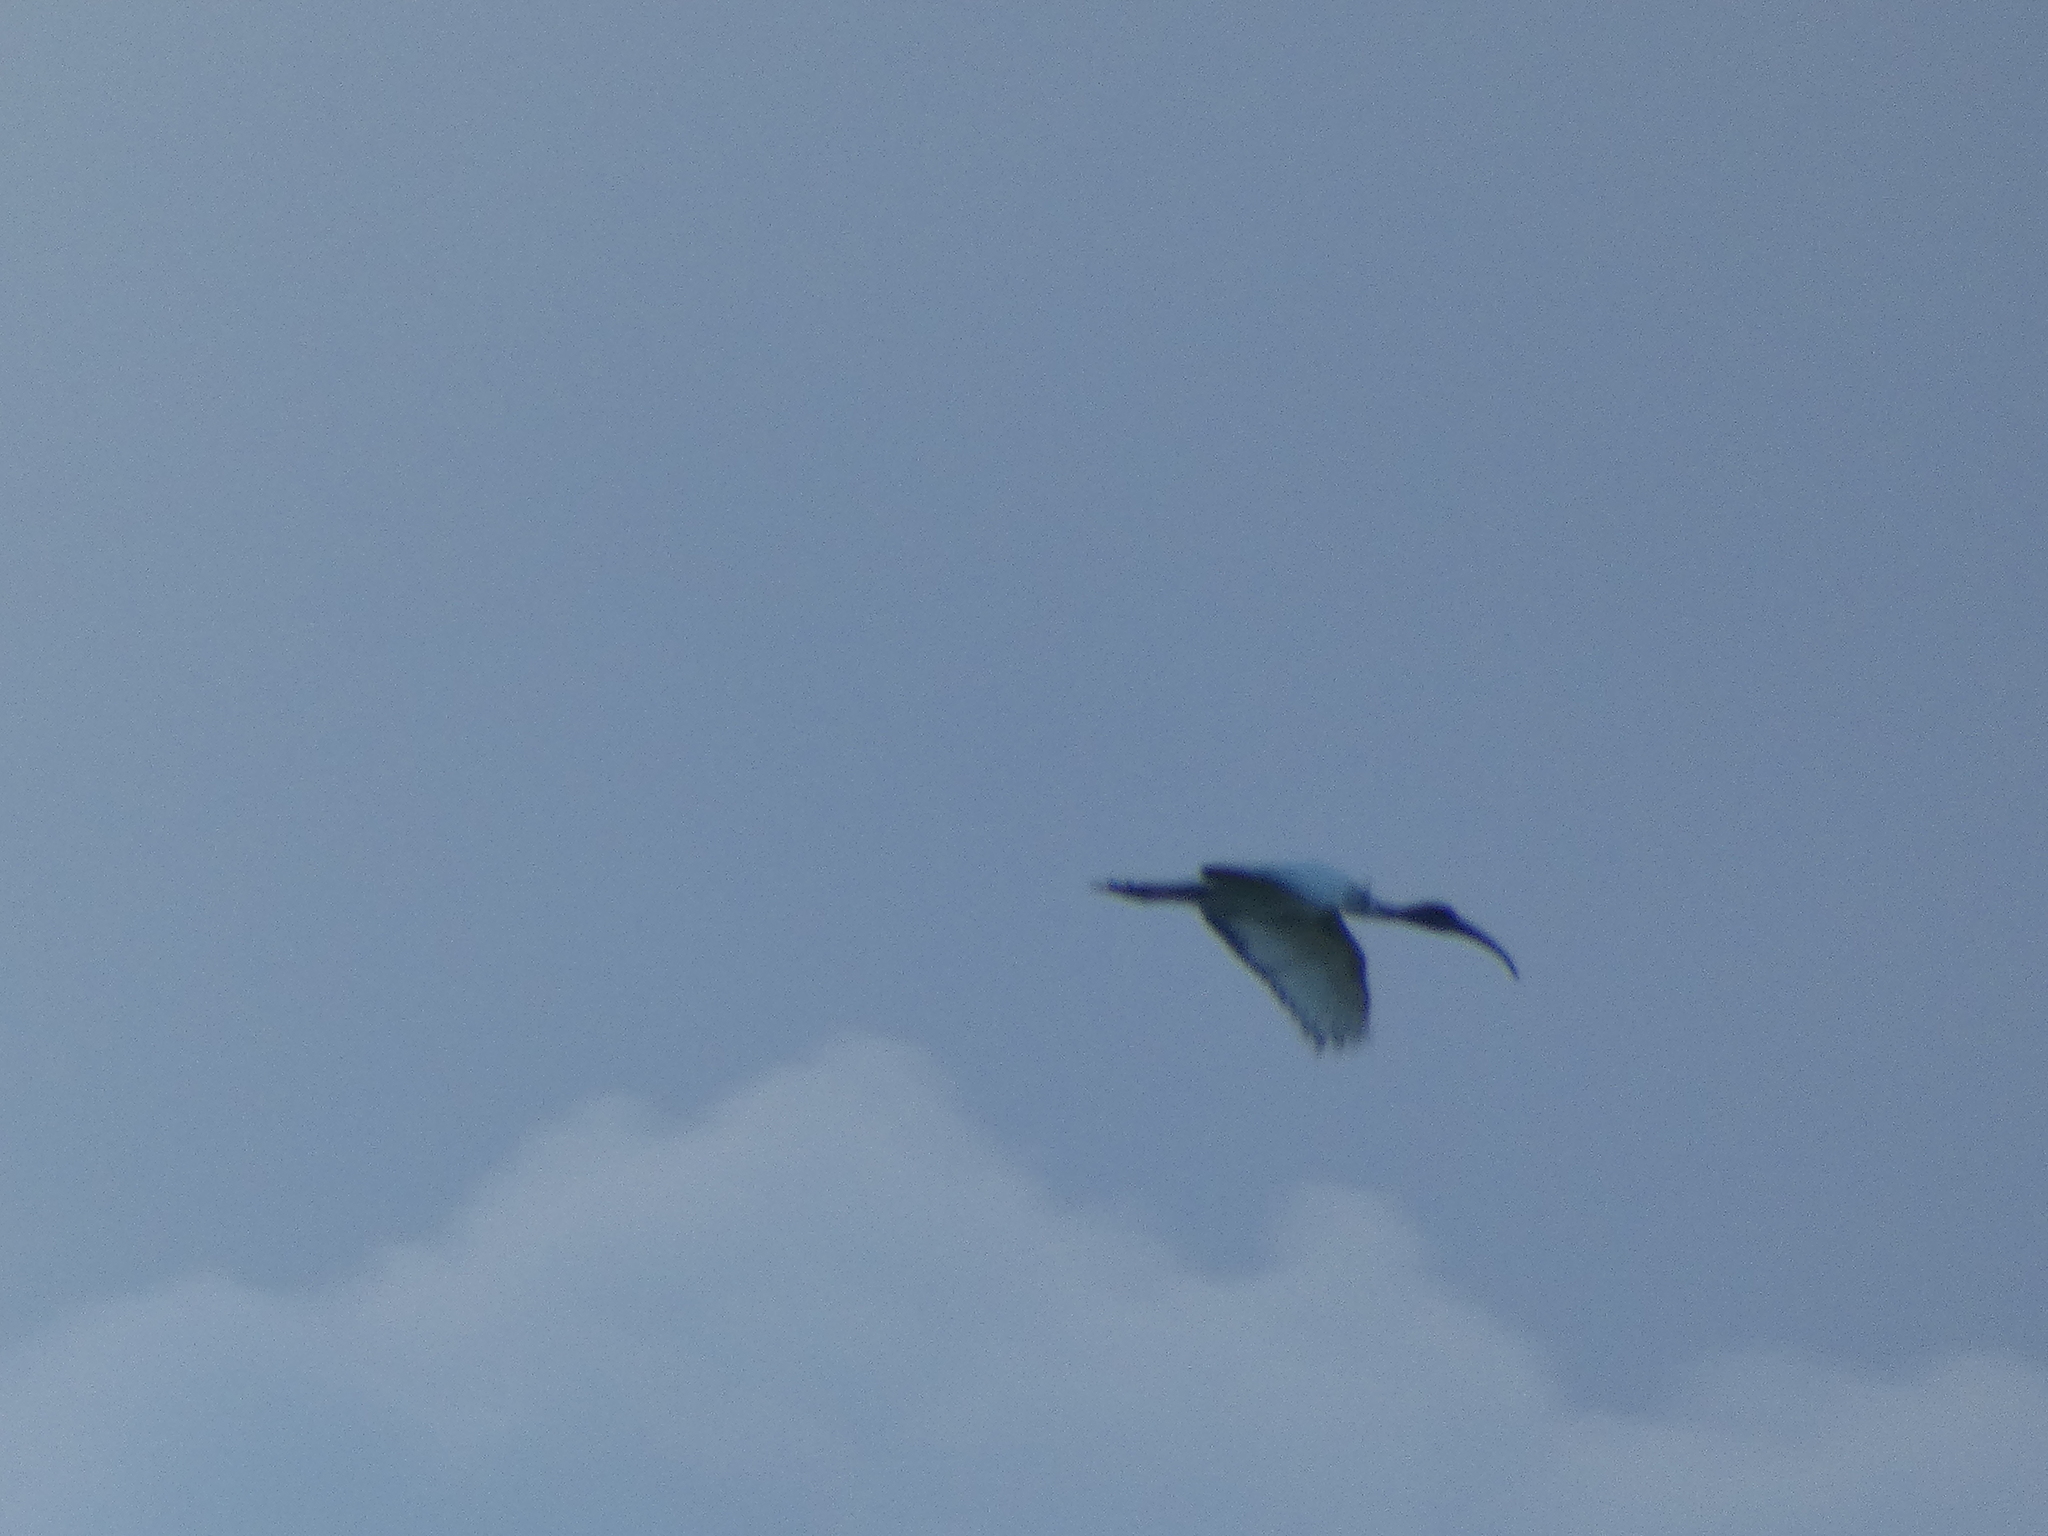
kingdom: Animalia
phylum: Chordata
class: Aves
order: Pelecaniformes
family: Threskiornithidae
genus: Threskiornis
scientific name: Threskiornis aethiopicus
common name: Sacred ibis
